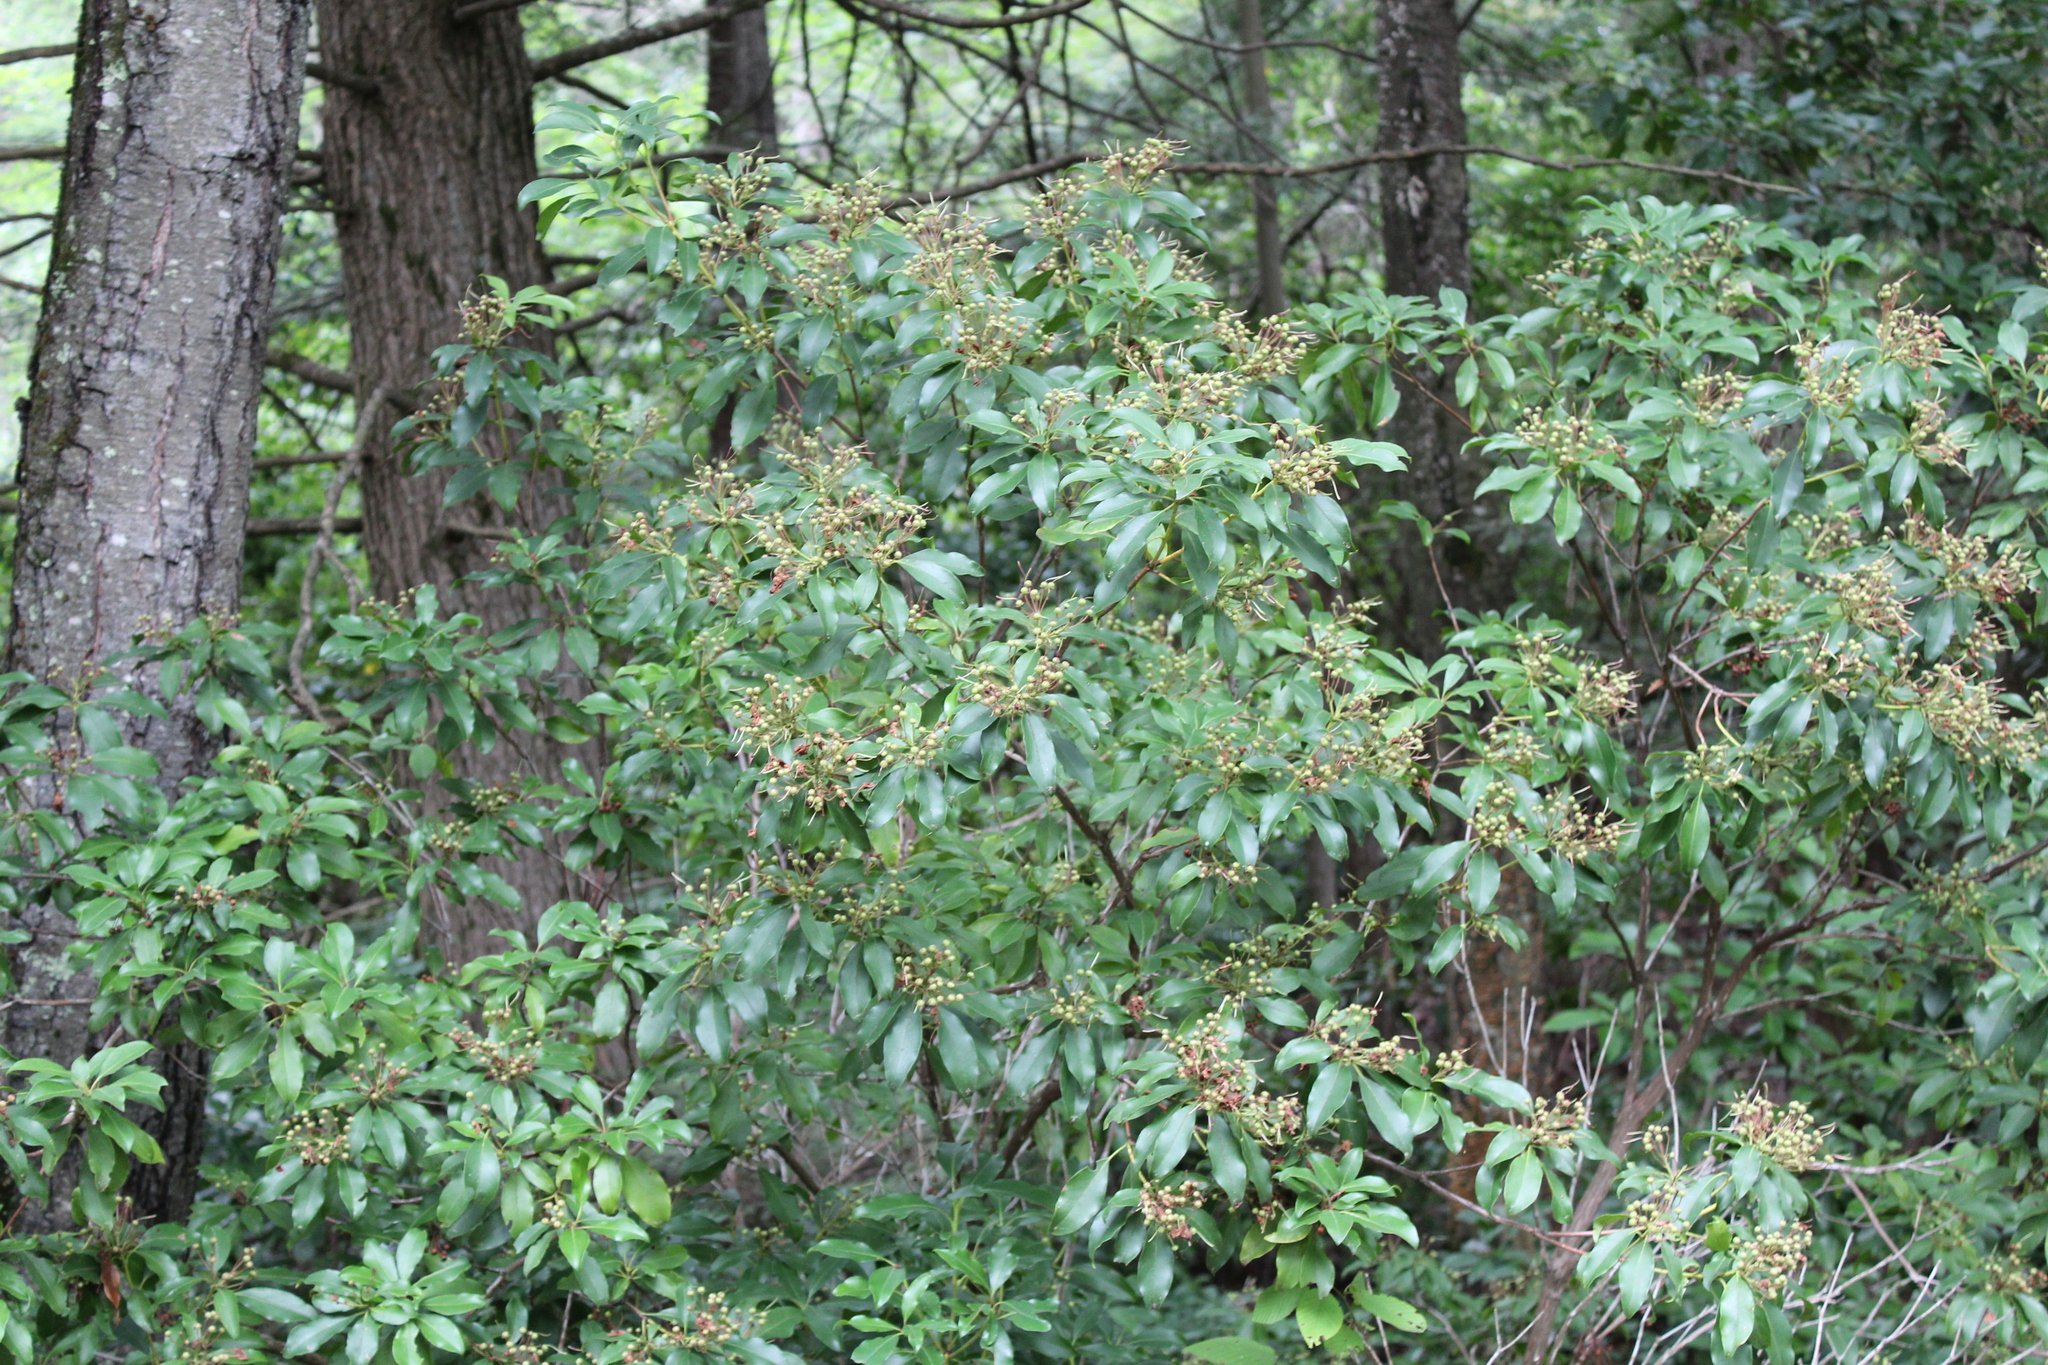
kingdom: Plantae
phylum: Tracheophyta
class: Magnoliopsida
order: Ericales
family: Ericaceae
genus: Kalmia
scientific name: Kalmia latifolia
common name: Mountain-laurel
